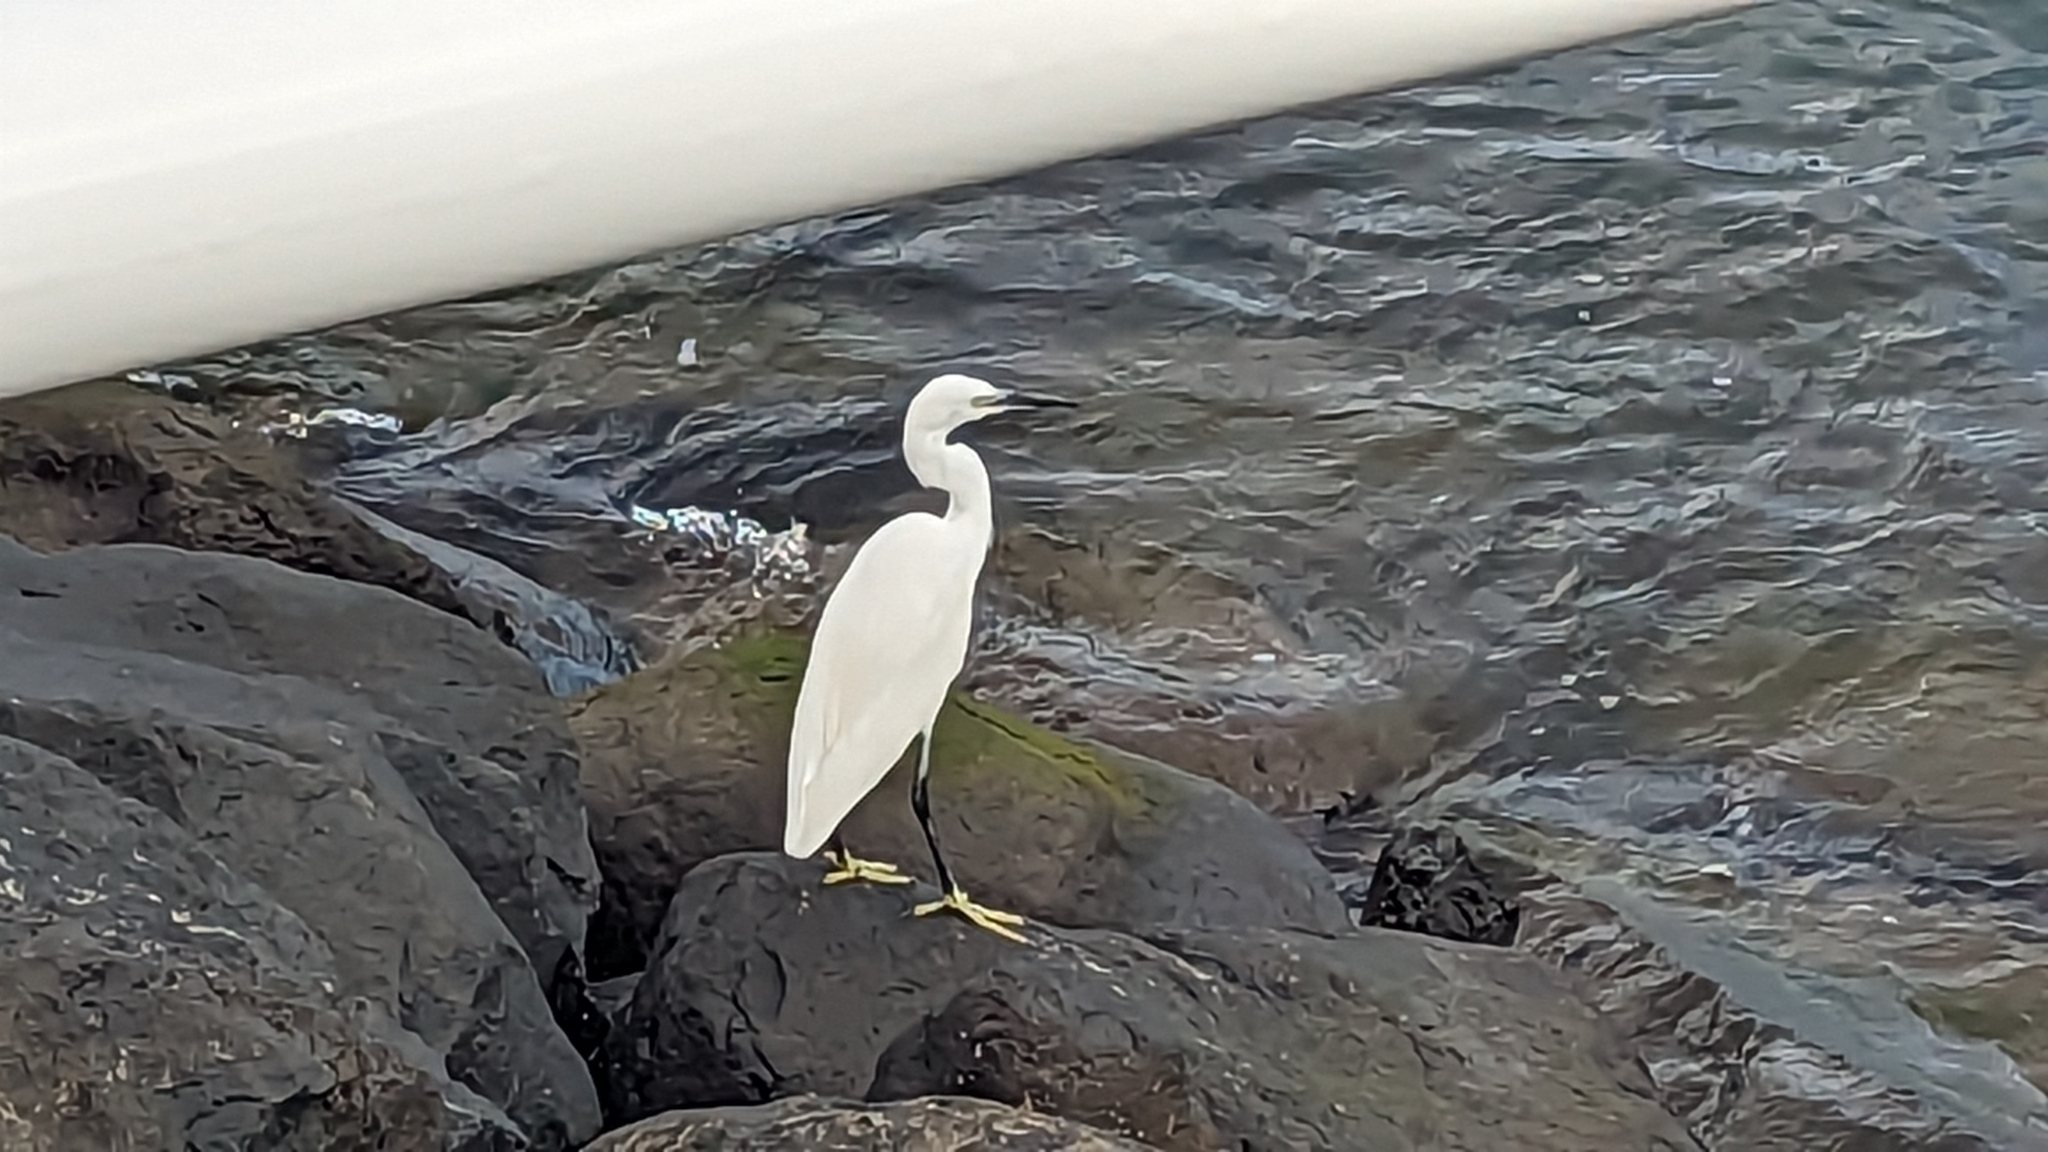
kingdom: Animalia
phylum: Chordata
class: Aves
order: Pelecaniformes
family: Ardeidae
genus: Egretta
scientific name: Egretta garzetta
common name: Little egret
